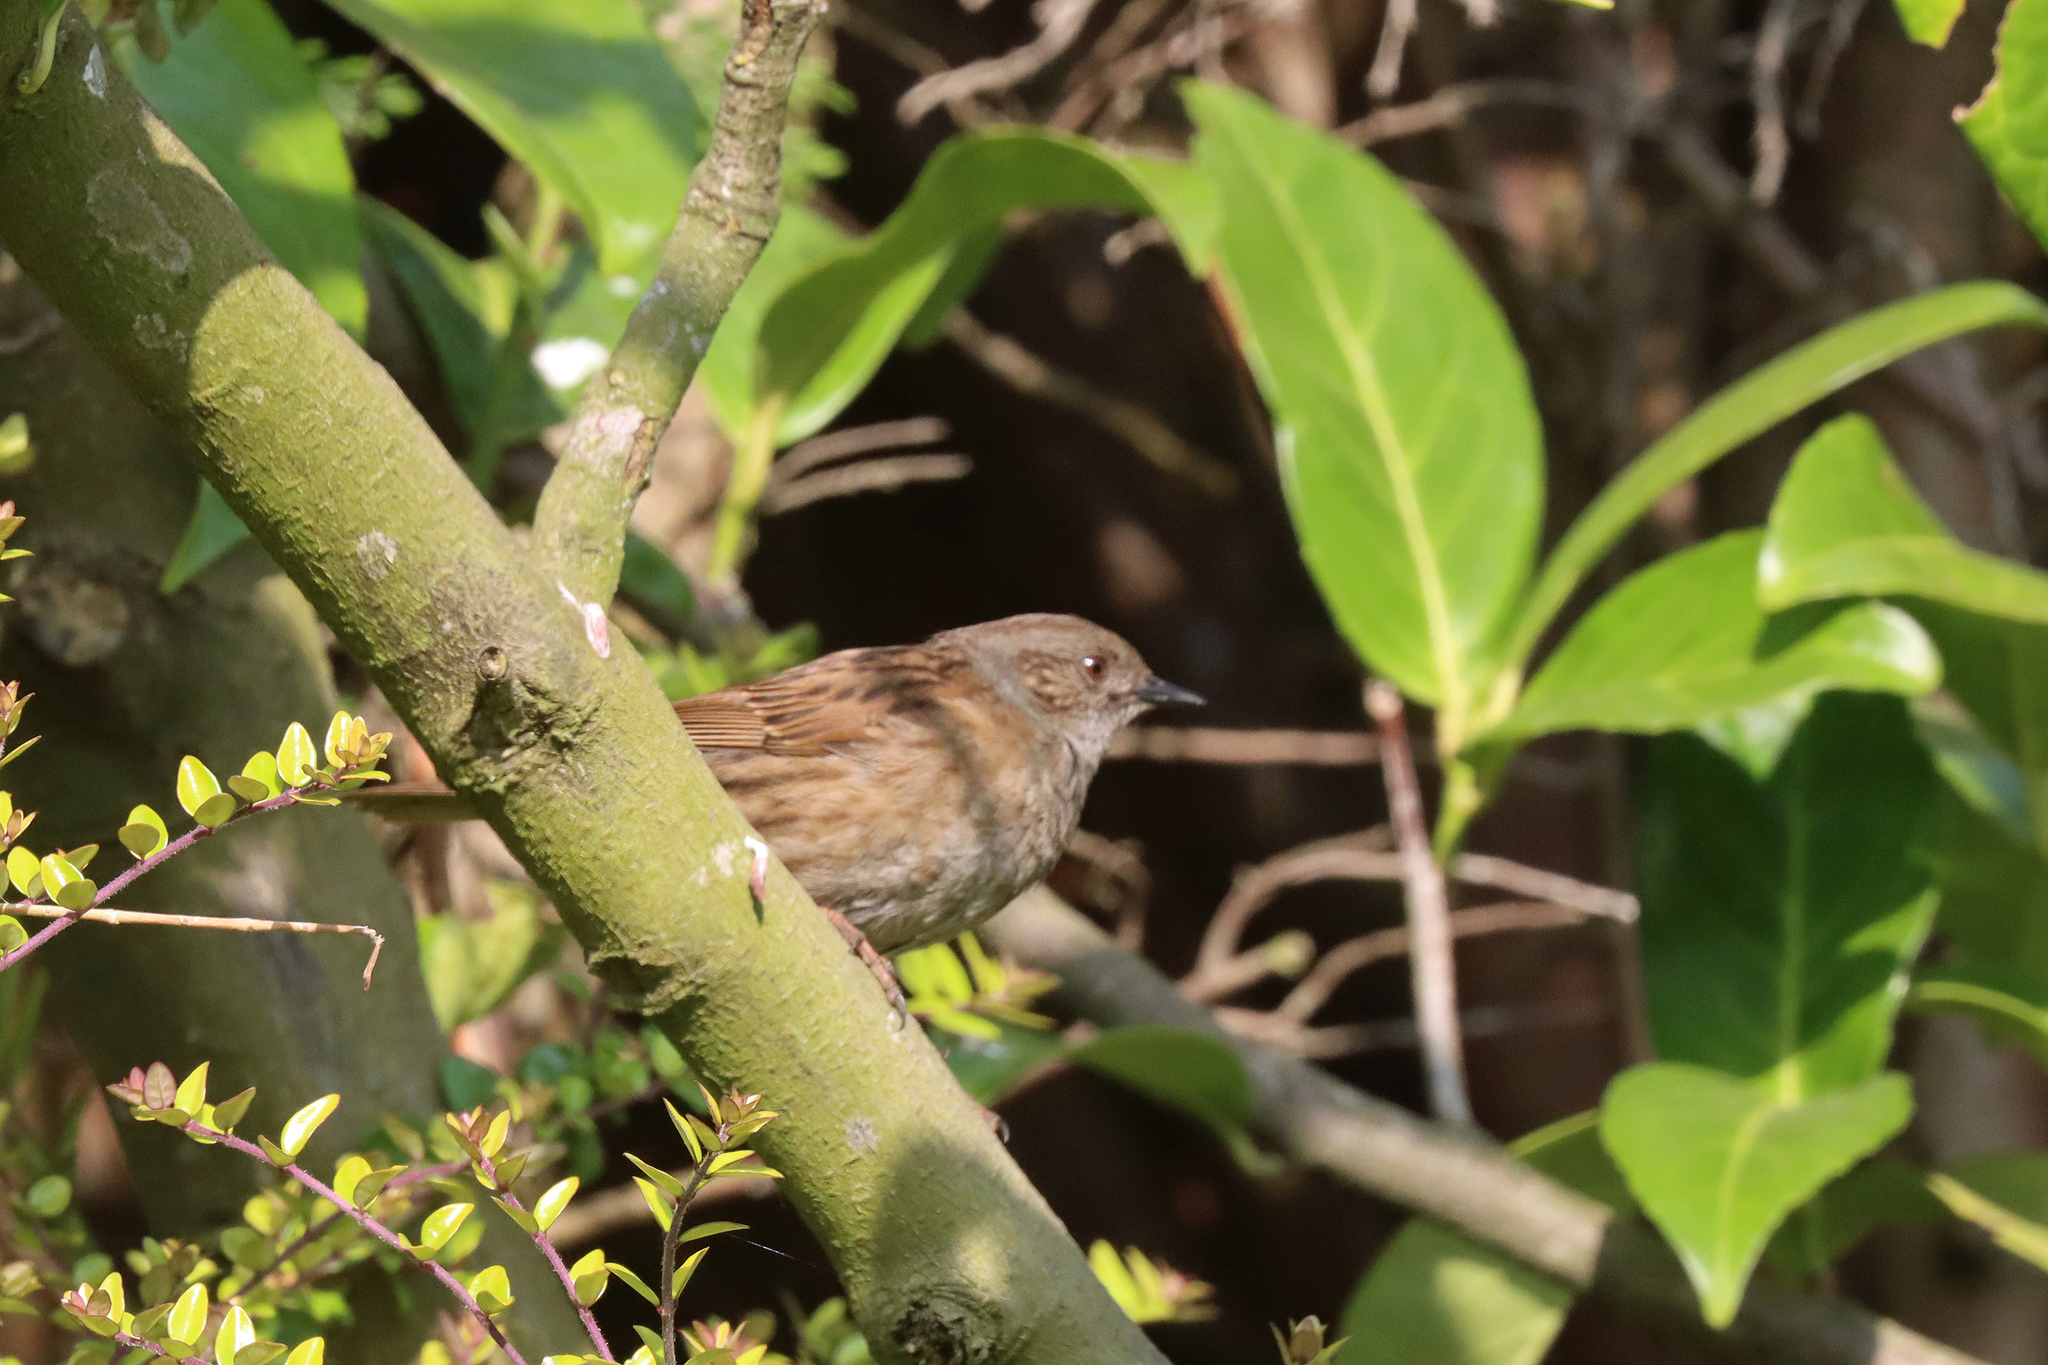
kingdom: Animalia
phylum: Chordata
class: Aves
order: Passeriformes
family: Prunellidae
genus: Prunella
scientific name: Prunella modularis
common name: Dunnock
